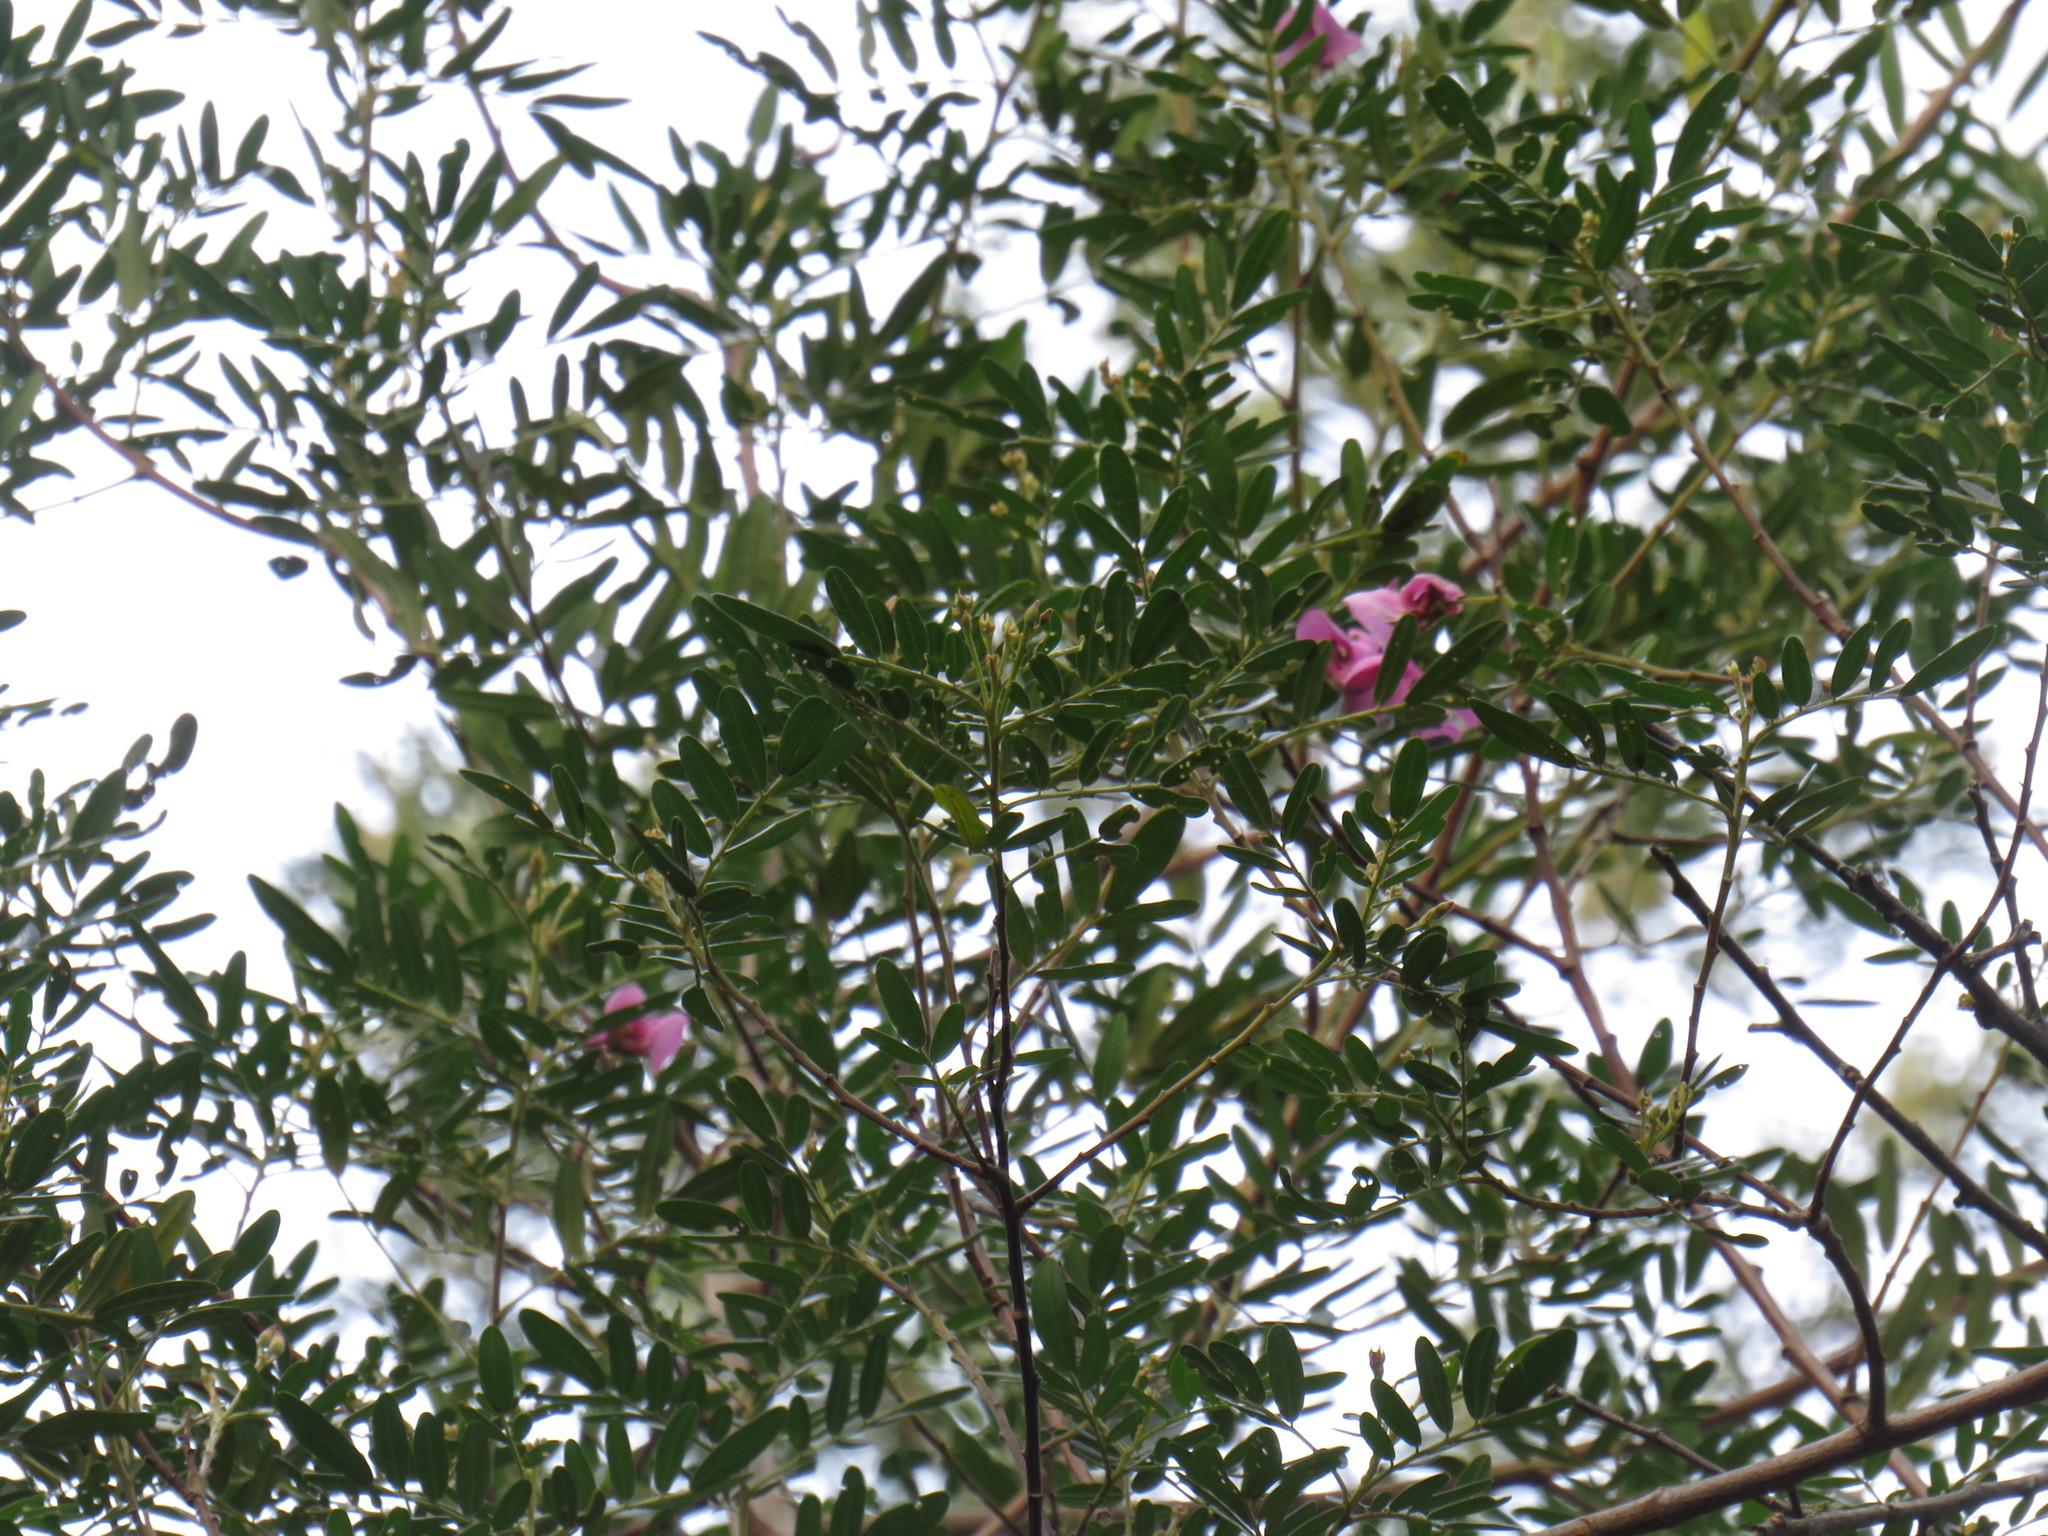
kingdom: Plantae
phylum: Tracheophyta
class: Magnoliopsida
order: Fabales
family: Fabaceae
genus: Virgilia
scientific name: Virgilia oroboides
